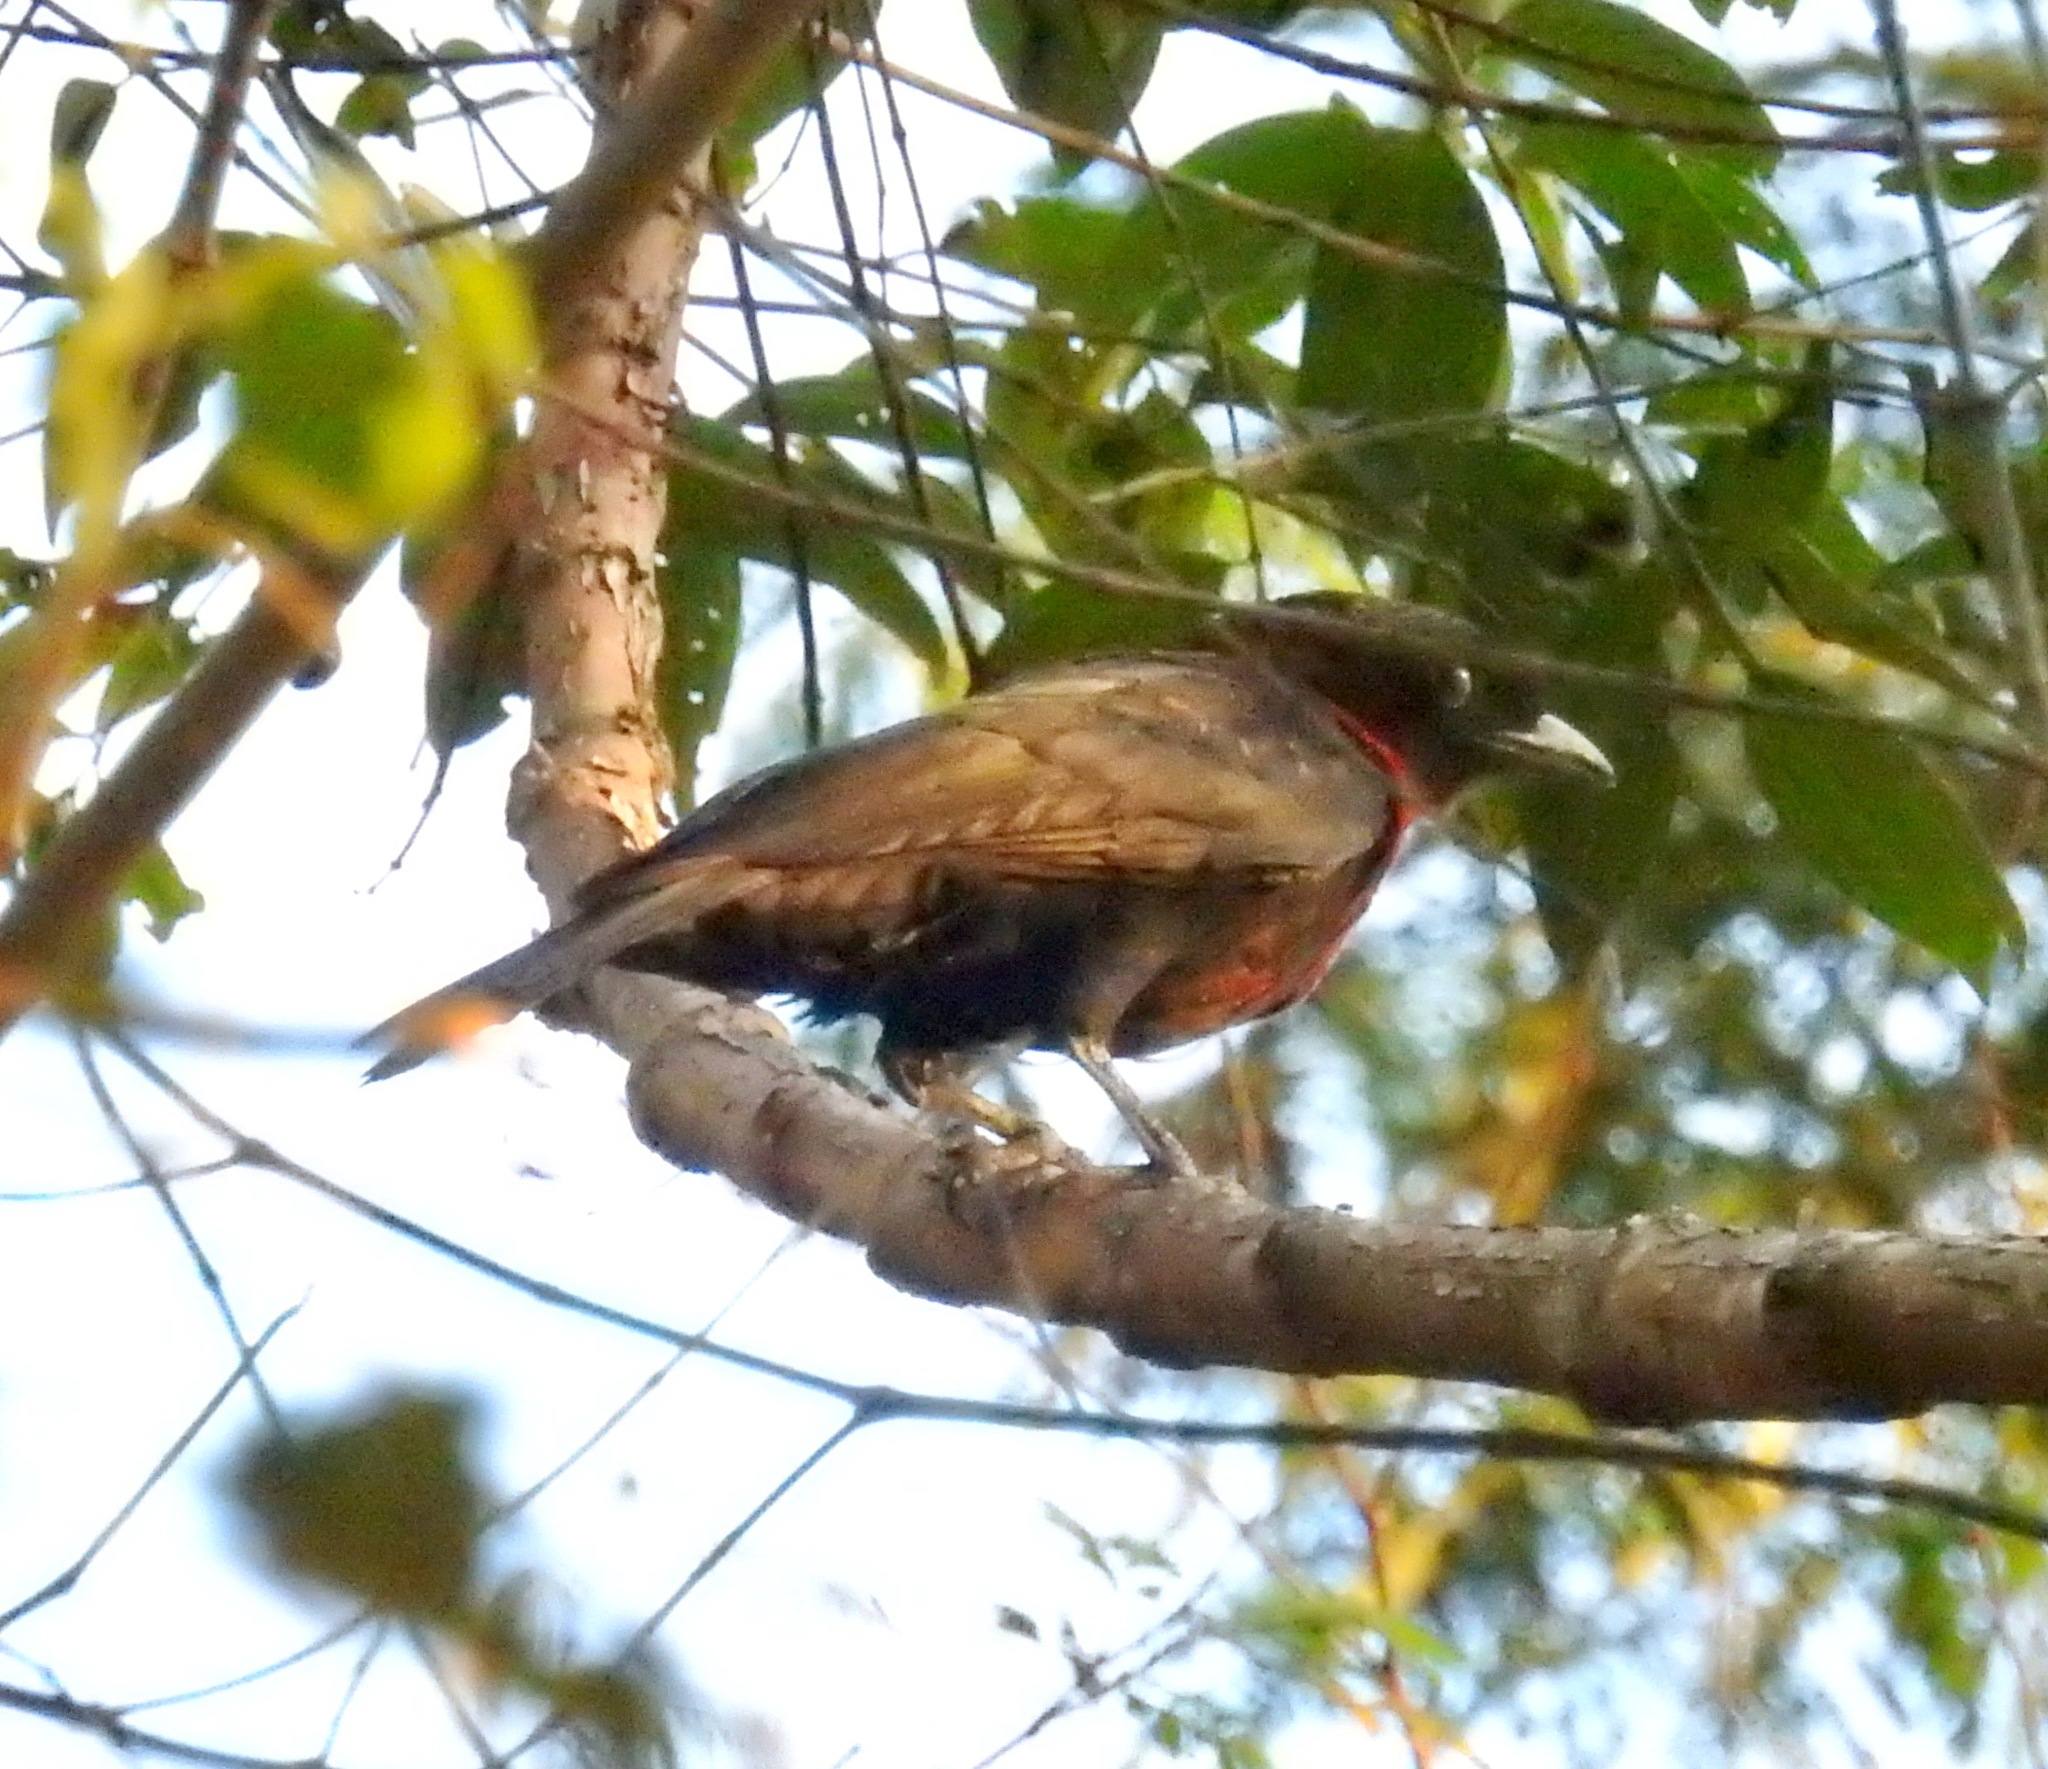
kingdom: Animalia
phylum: Chordata
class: Aves
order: Passeriformes
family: Cotingidae
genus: Pyroderus
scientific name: Pyroderus scutatus
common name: Red-ruffed fruitcrow
